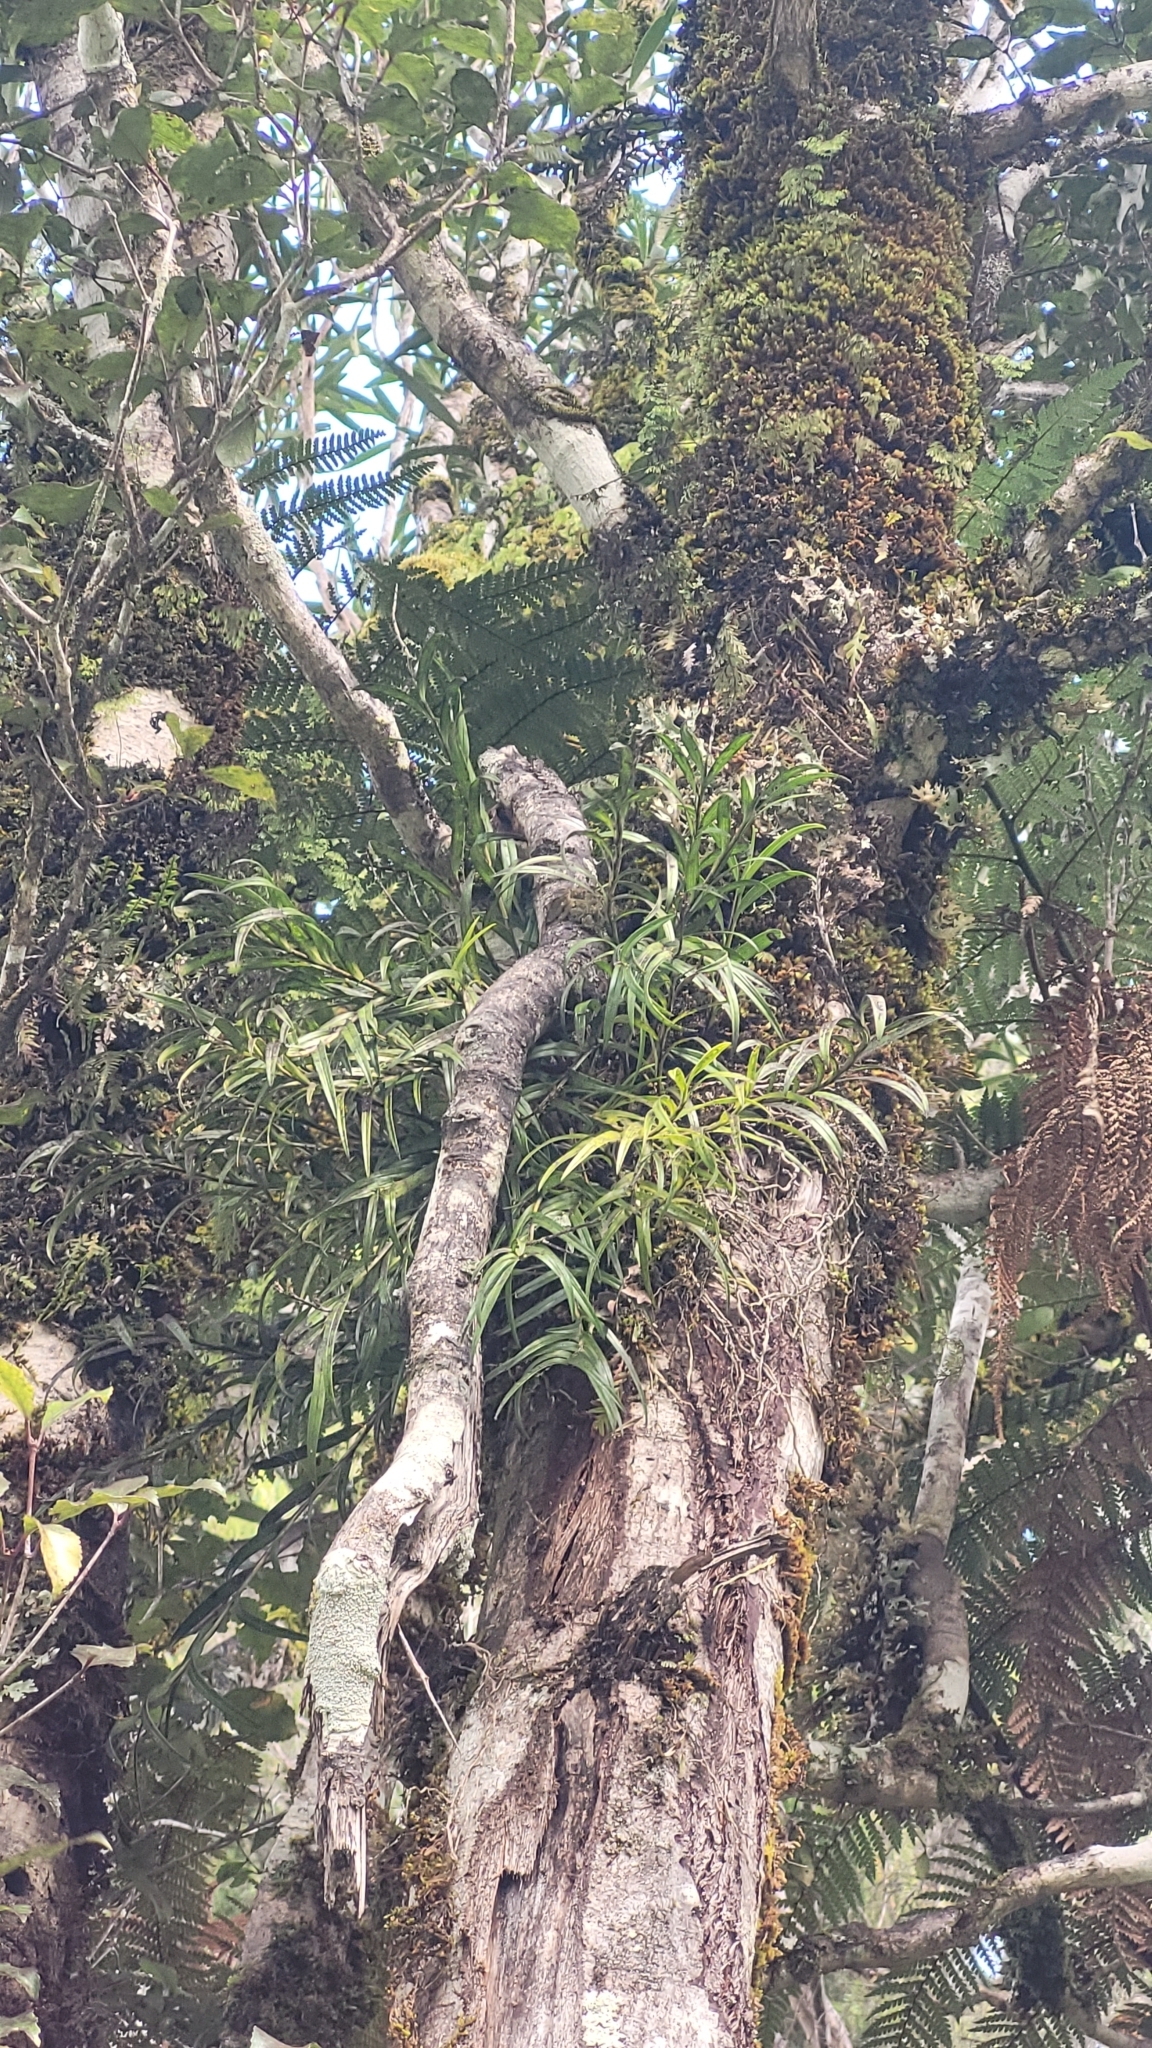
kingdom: Plantae
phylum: Tracheophyta
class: Liliopsida
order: Asparagales
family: Orchidaceae
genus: Earina
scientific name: Earina autumnalis
